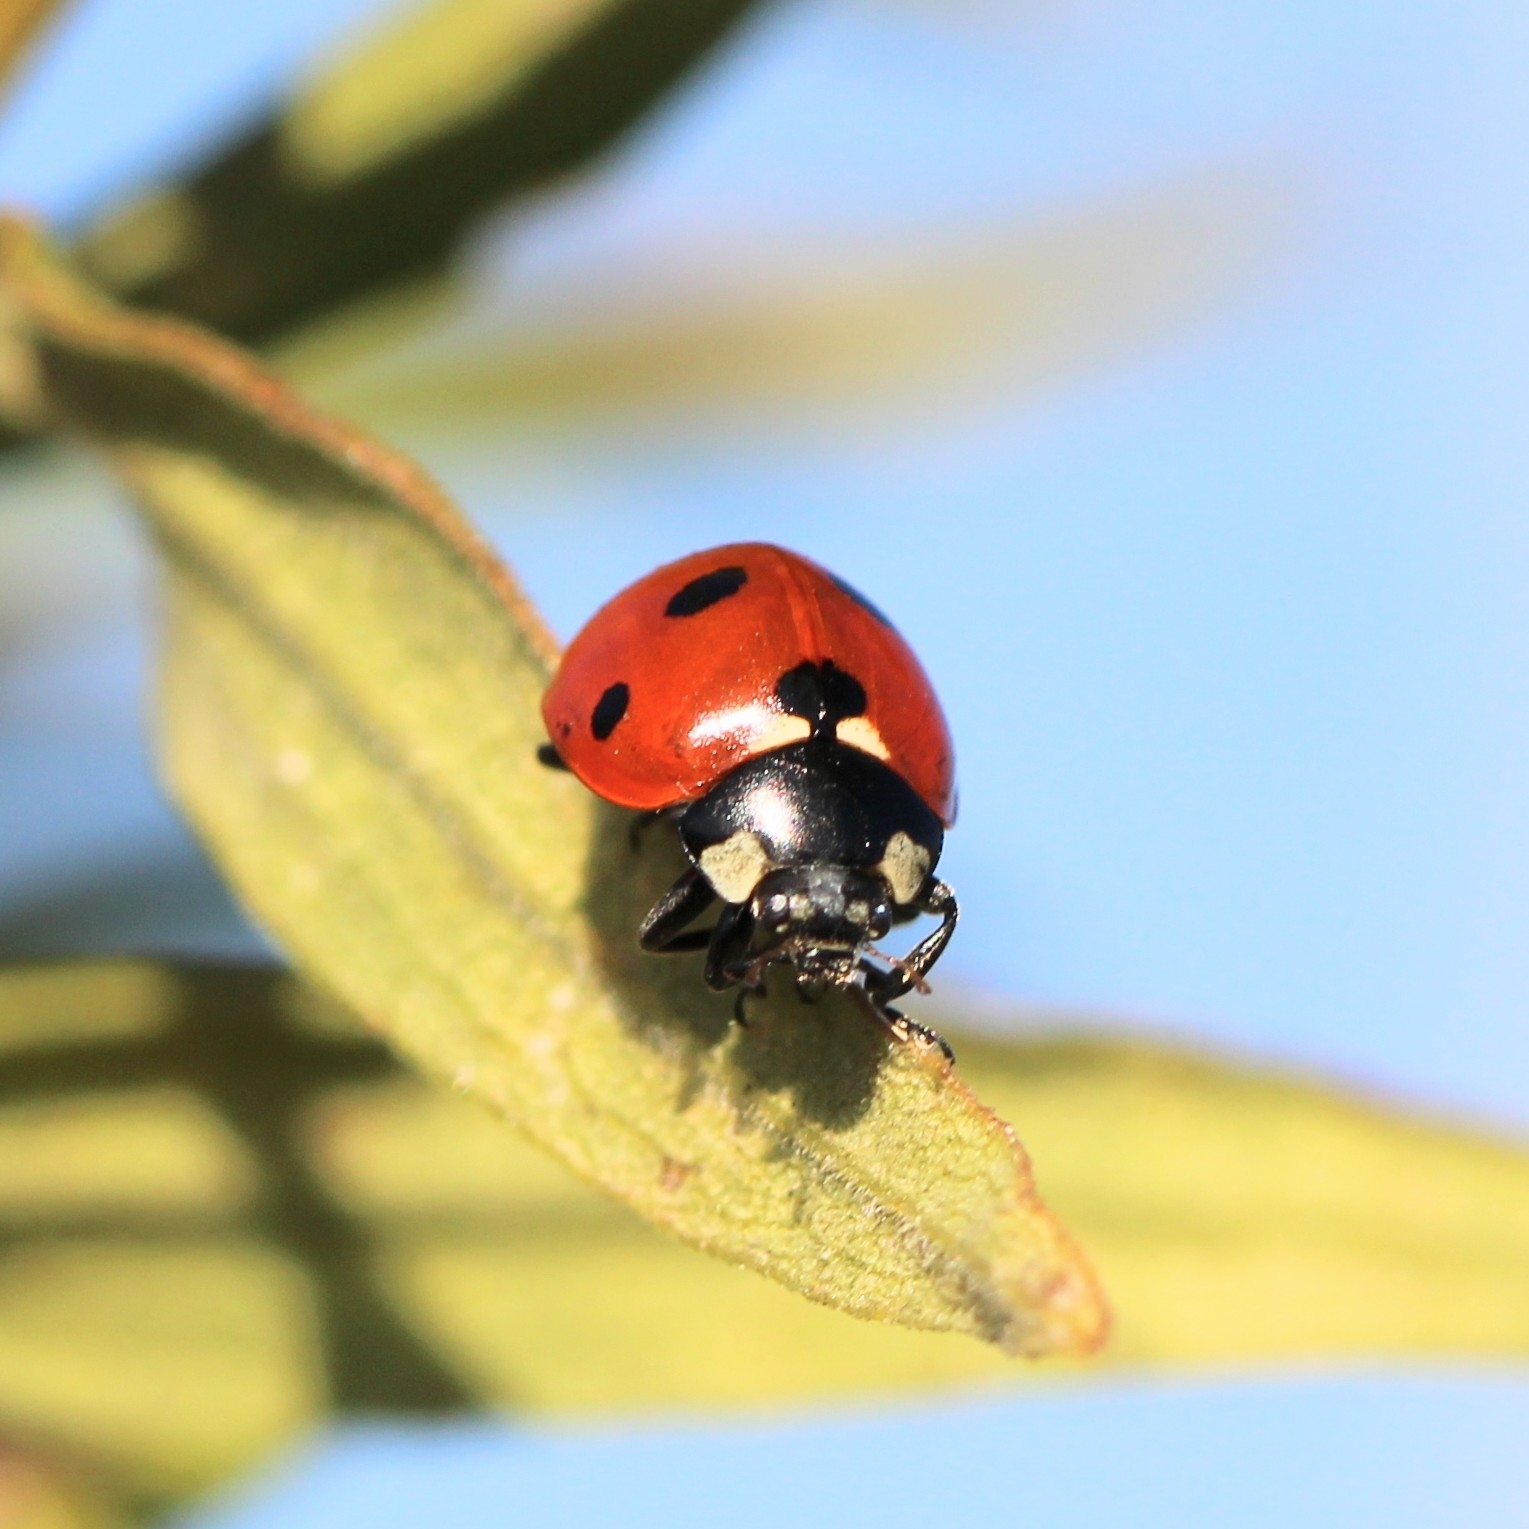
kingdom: Animalia
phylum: Arthropoda
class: Insecta
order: Coleoptera
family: Coccinellidae
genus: Coccinella
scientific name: Coccinella septempunctata
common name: Sevenspotted lady beetle
